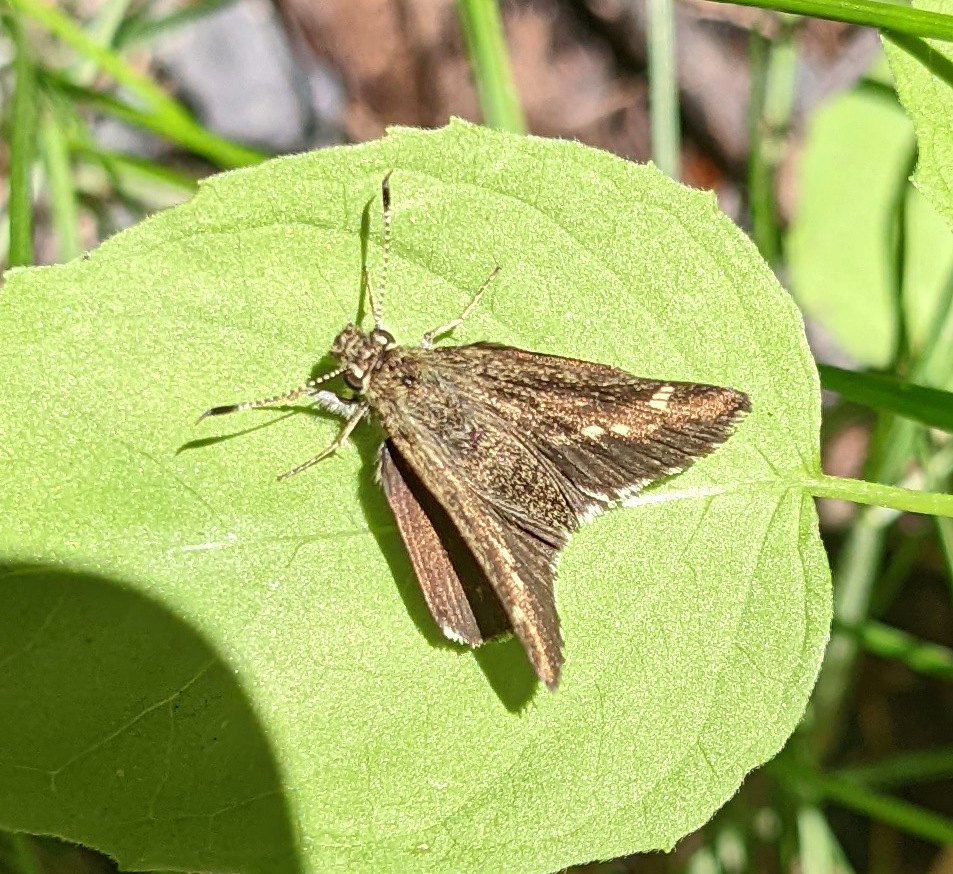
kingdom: Animalia
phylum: Arthropoda
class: Insecta
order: Lepidoptera
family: Hesperiidae
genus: Mastor
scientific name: Mastor hegon
